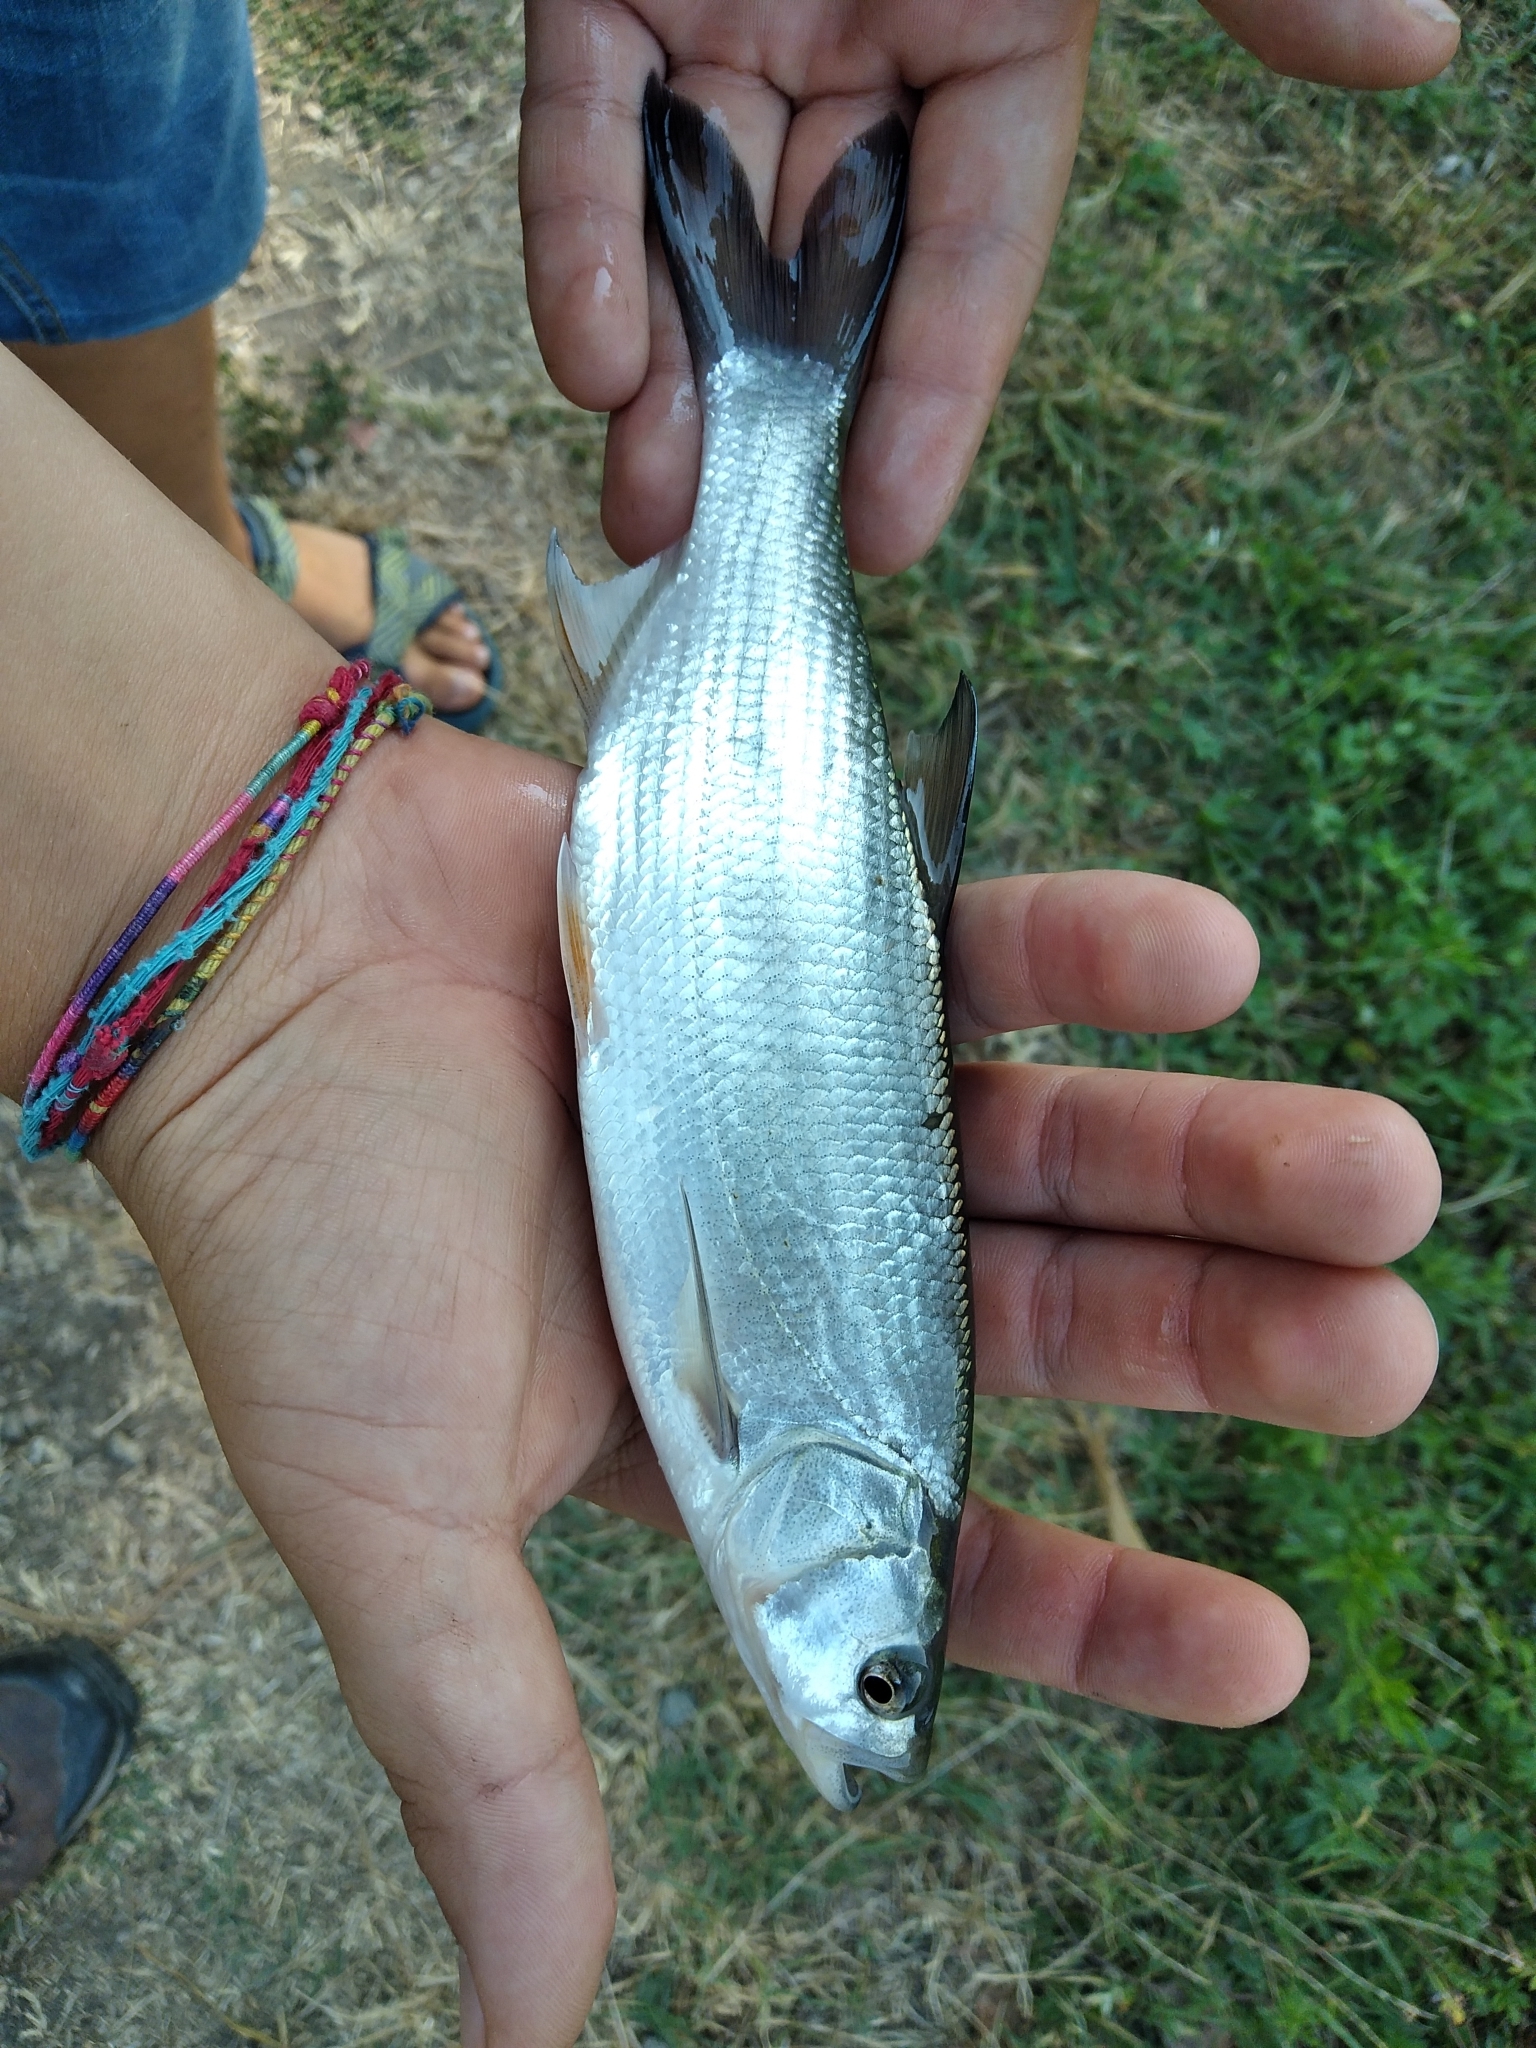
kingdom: Animalia
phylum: Chordata
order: Cypriniformes
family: Cyprinidae
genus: Leuciscus
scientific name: Leuciscus aspius
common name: Asp
